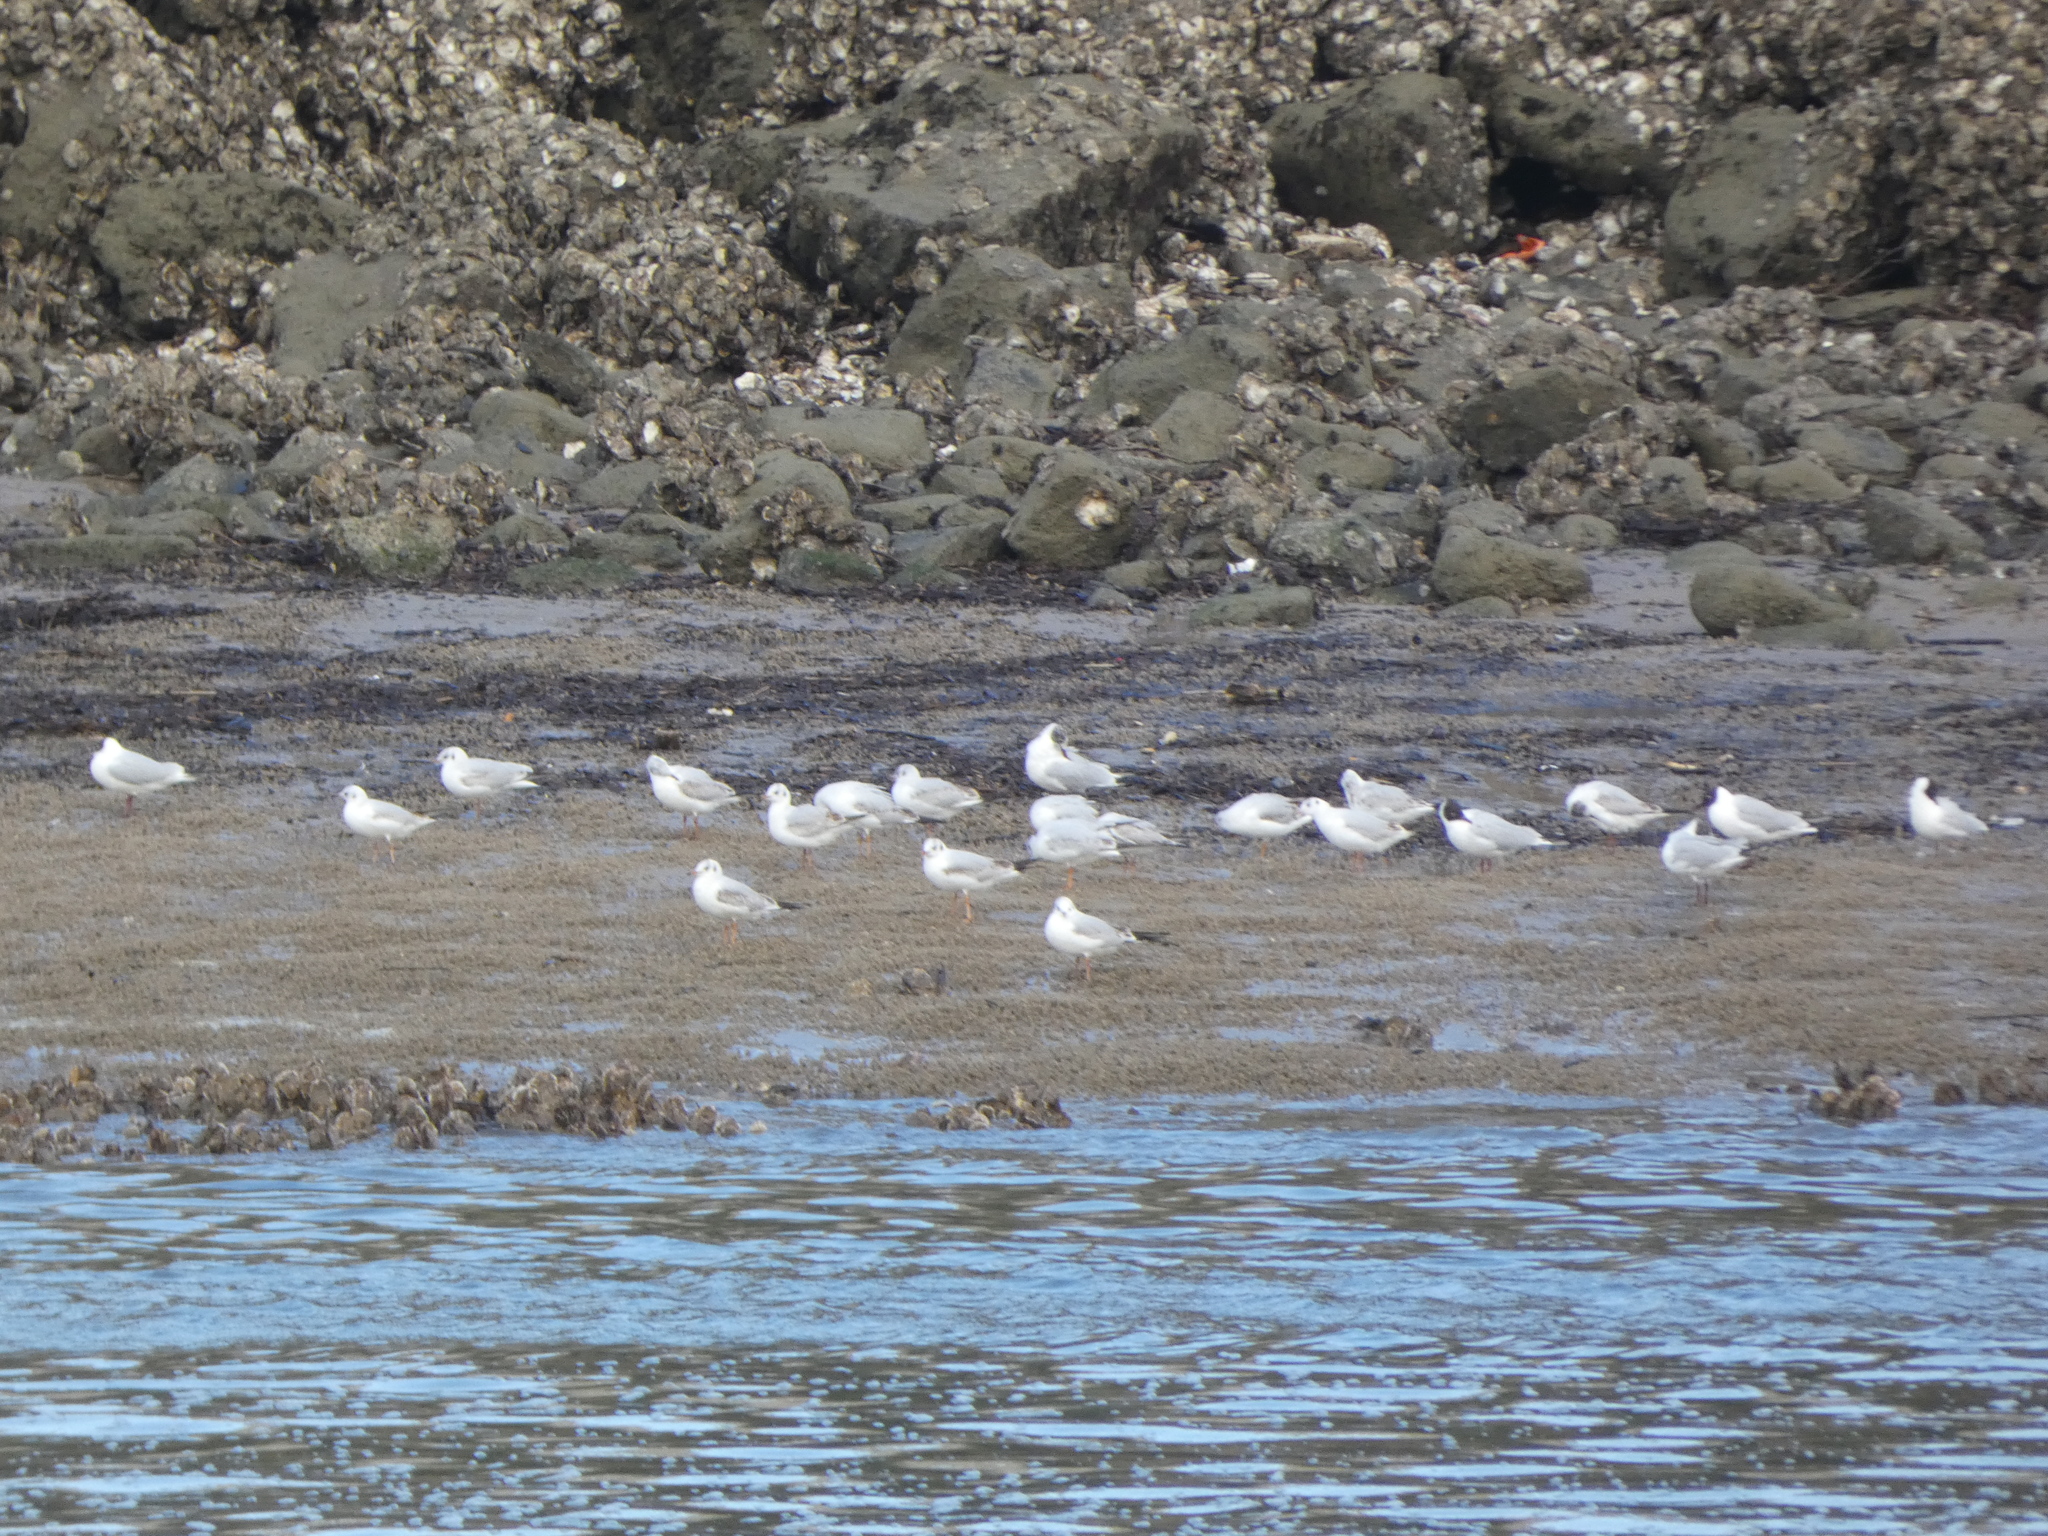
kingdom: Animalia
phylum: Chordata
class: Aves
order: Charadriiformes
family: Laridae
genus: Chroicocephalus
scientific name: Chroicocephalus ridibundus
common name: Black-headed gull
